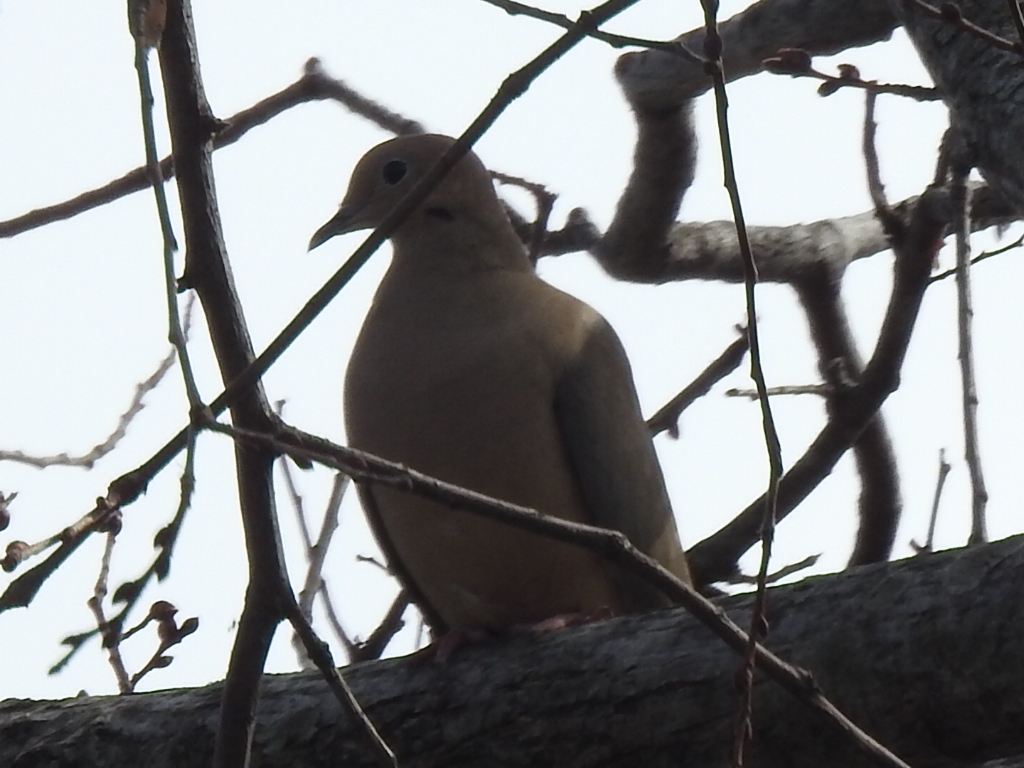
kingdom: Animalia
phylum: Chordata
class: Aves
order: Columbiformes
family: Columbidae
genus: Zenaida
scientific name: Zenaida macroura
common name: Mourning dove
